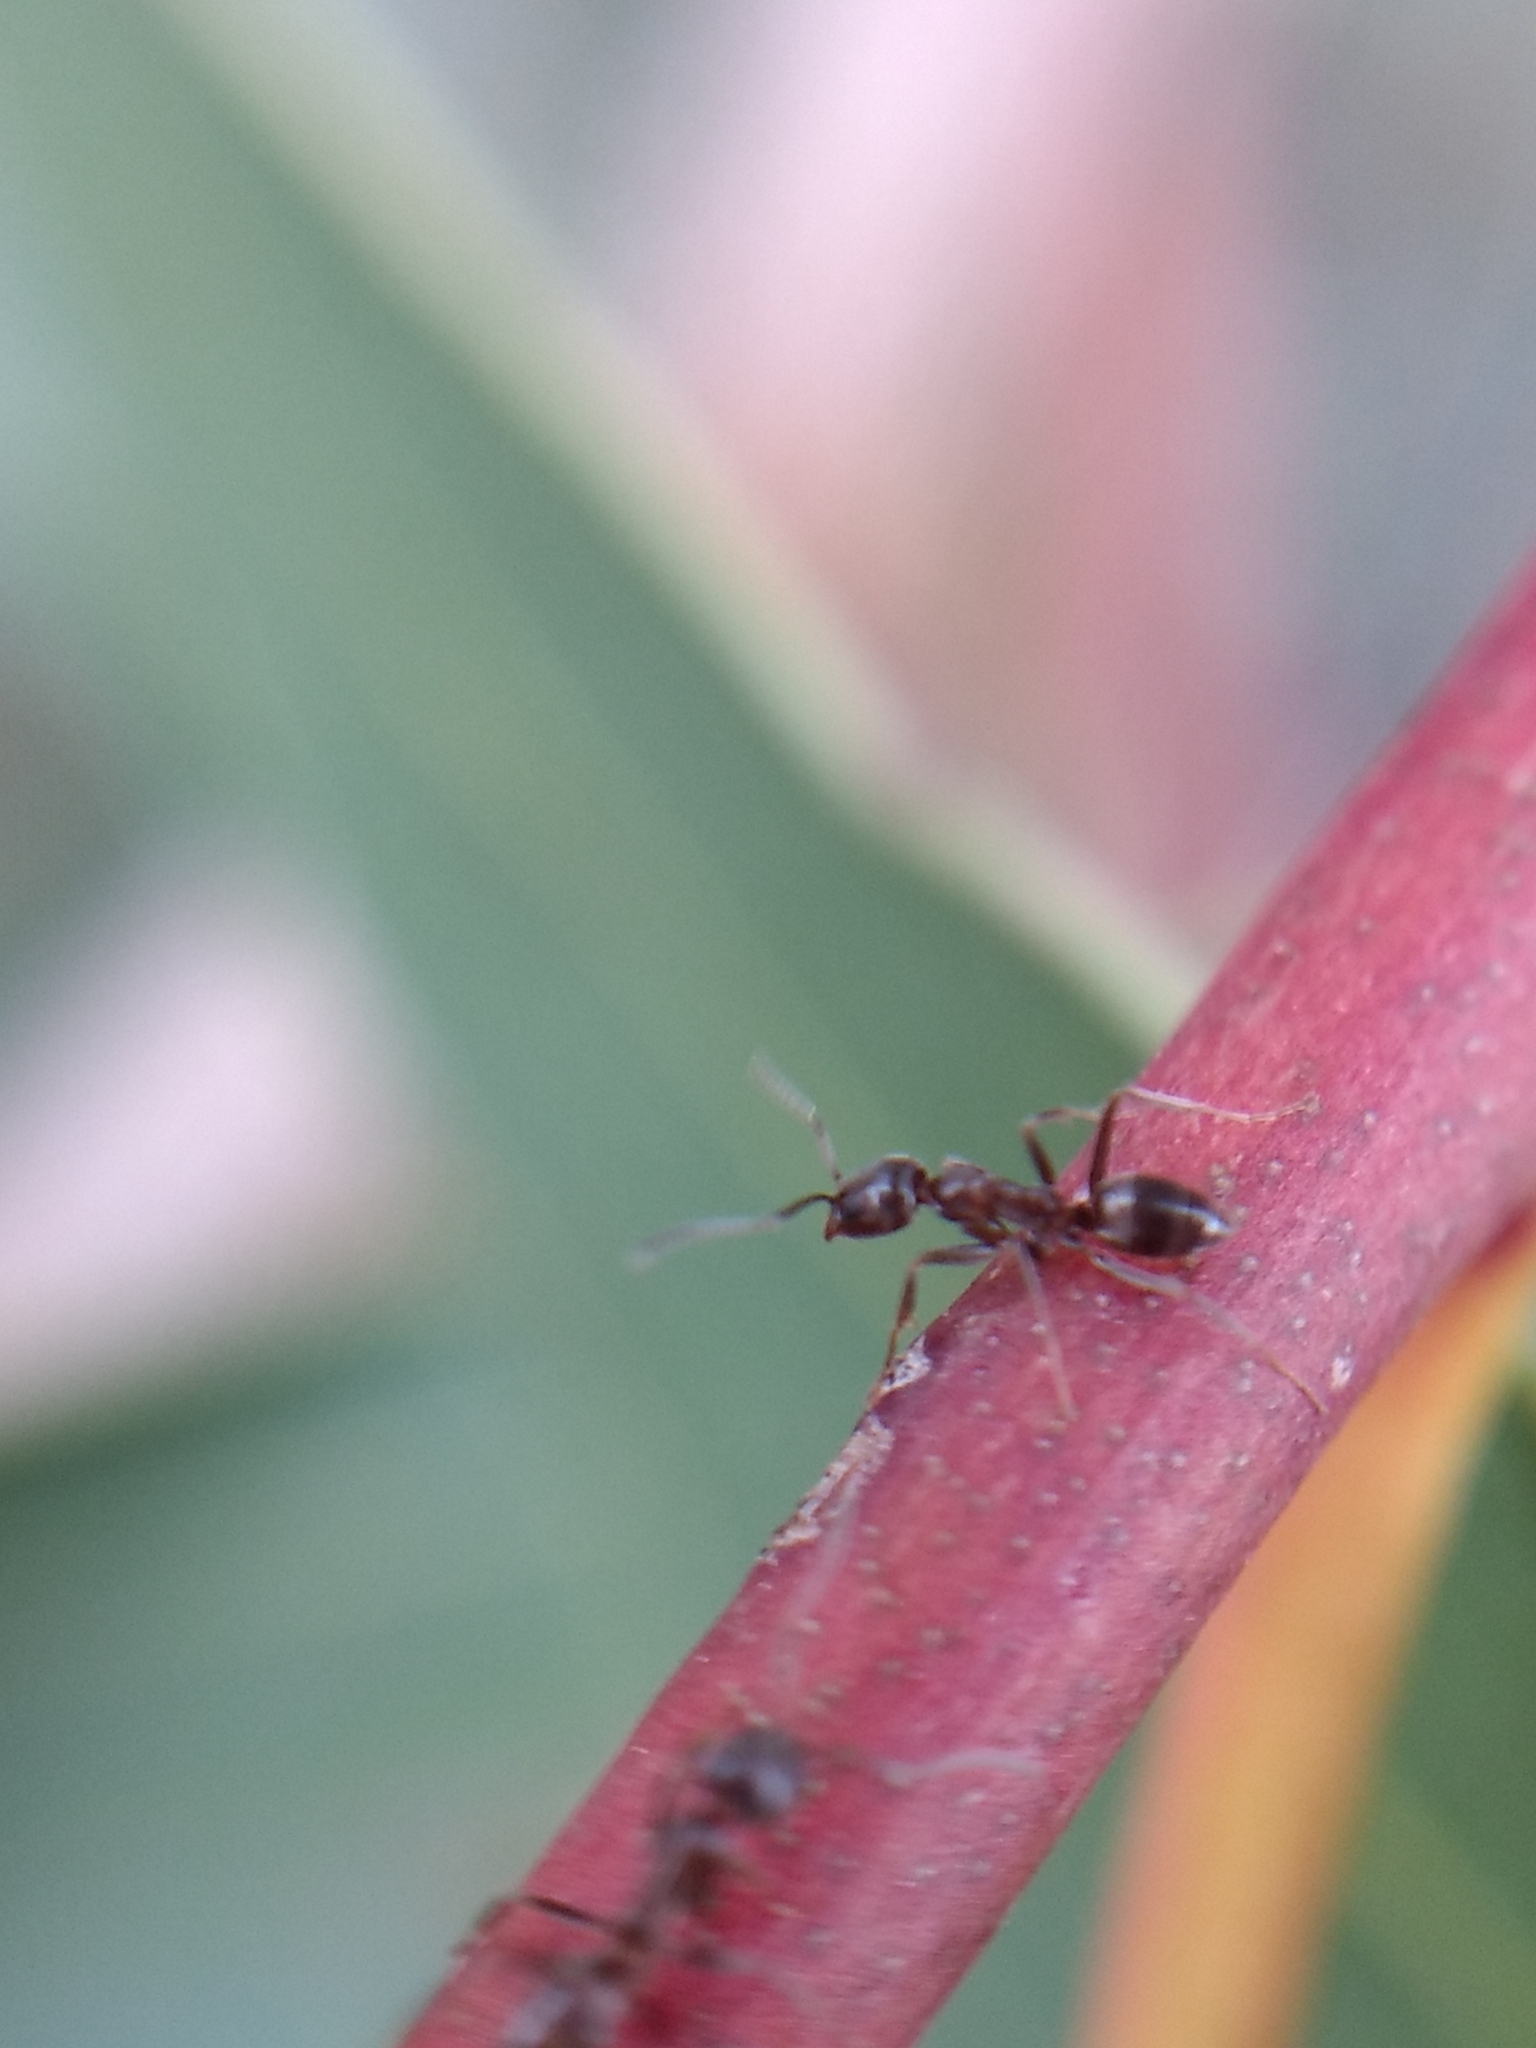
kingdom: Animalia
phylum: Arthropoda
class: Insecta
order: Hymenoptera
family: Formicidae
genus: Linepithema
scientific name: Linepithema humile
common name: Argentine ant
